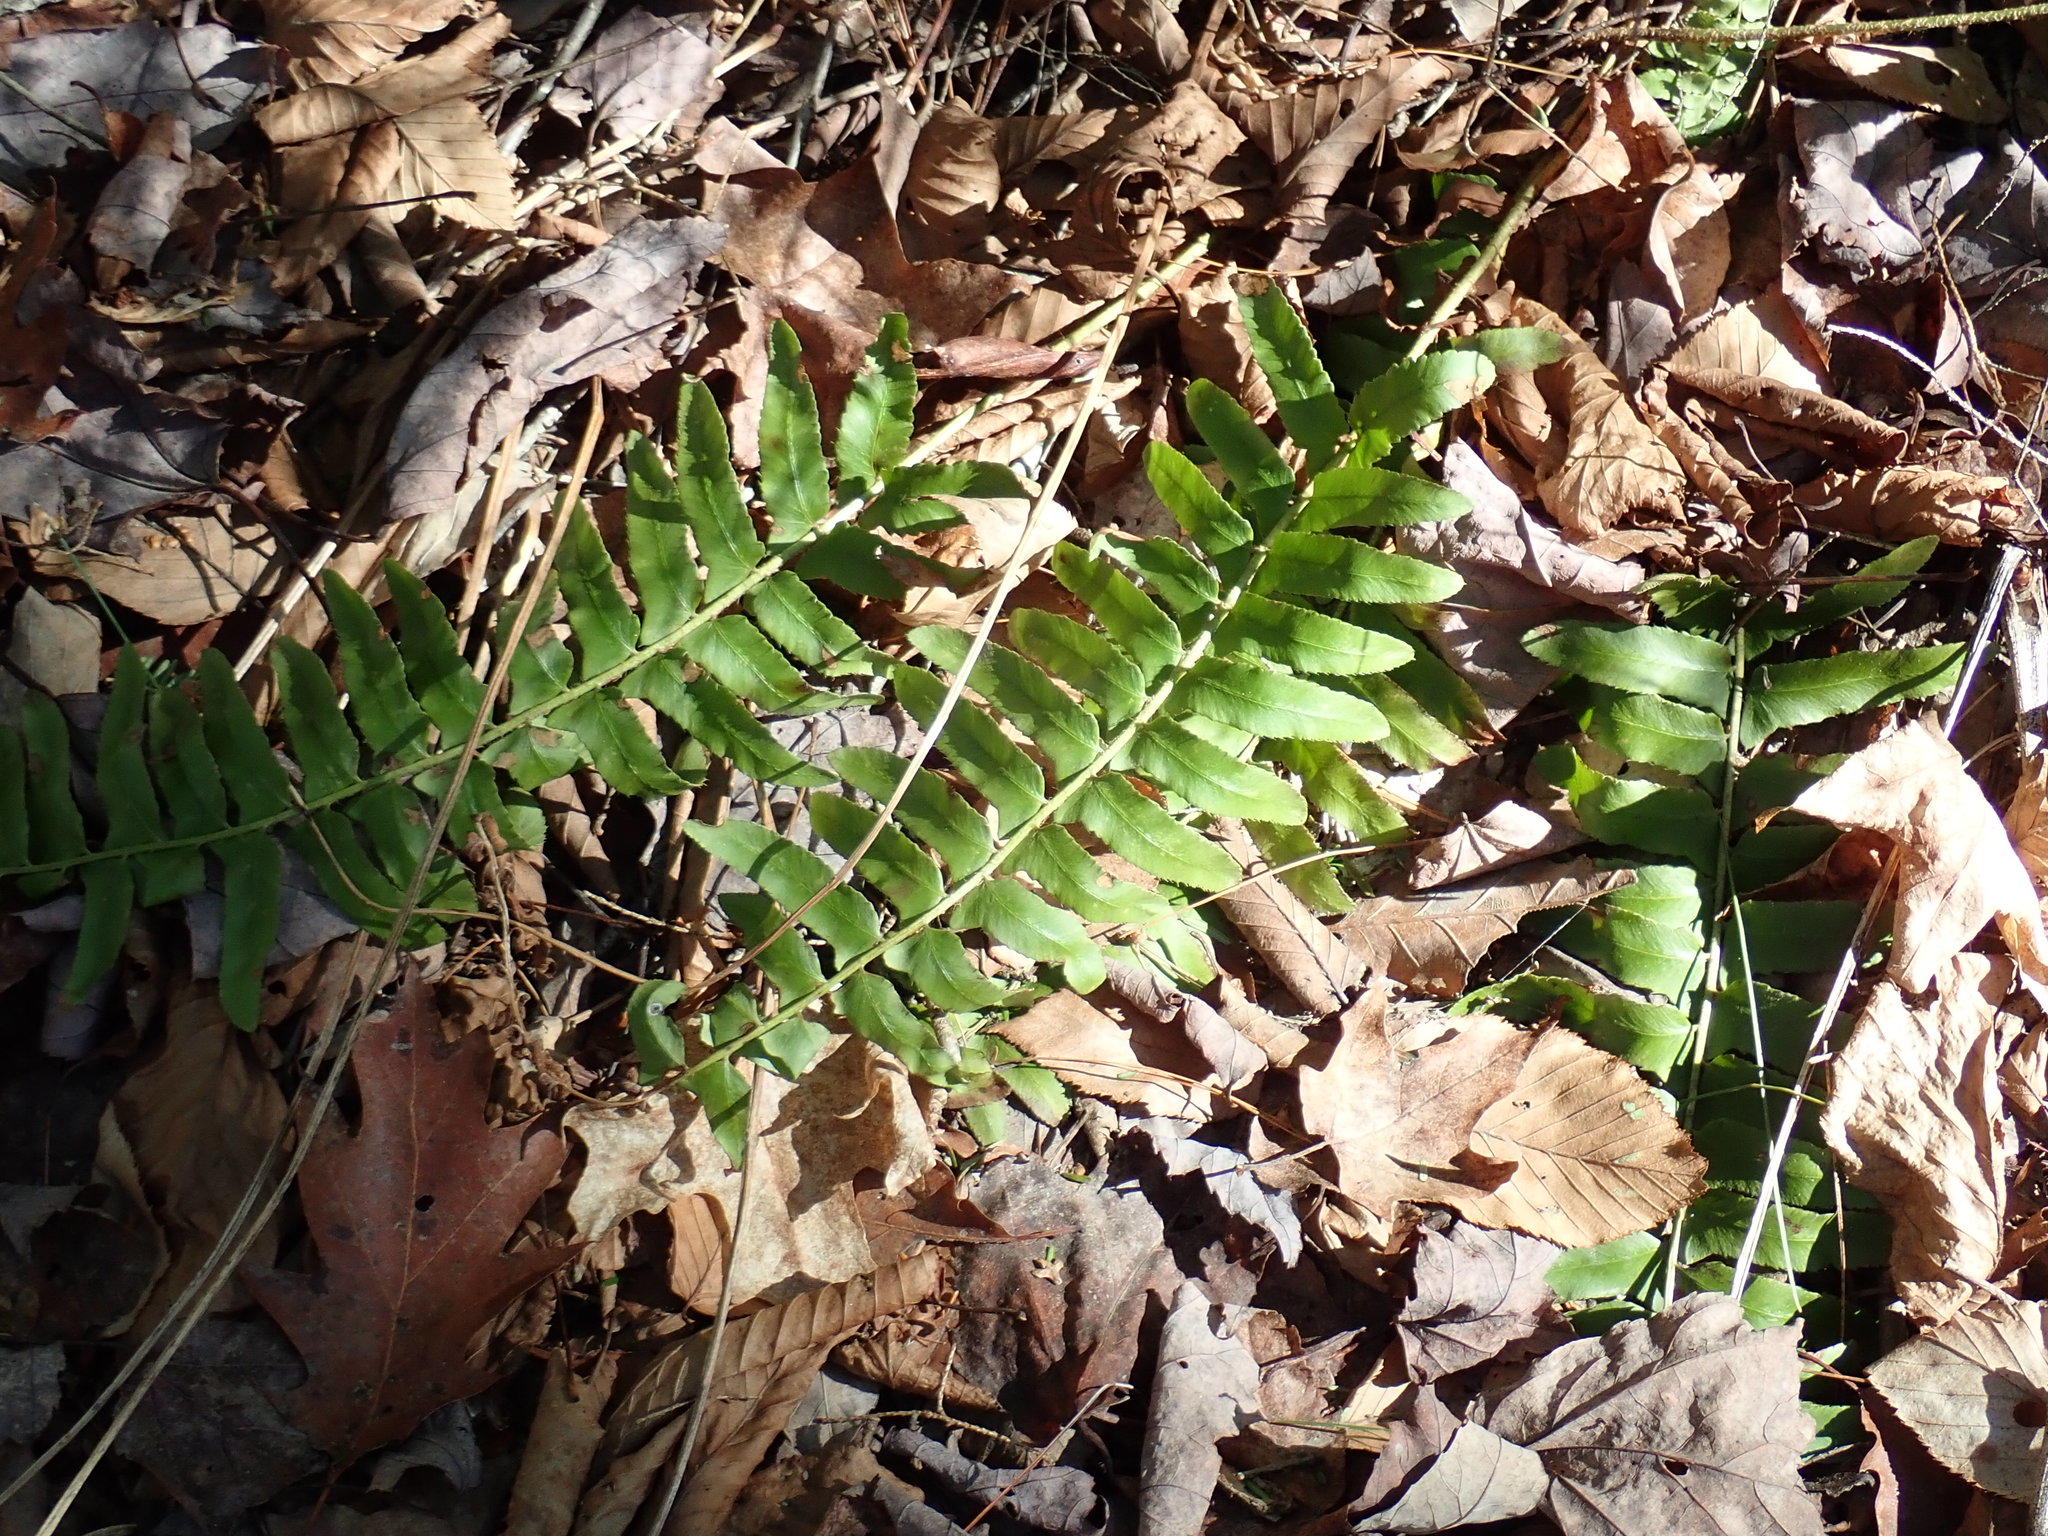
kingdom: Plantae
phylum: Tracheophyta
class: Polypodiopsida
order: Polypodiales
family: Dryopteridaceae
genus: Polystichum
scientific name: Polystichum acrostichoides
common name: Christmas fern
